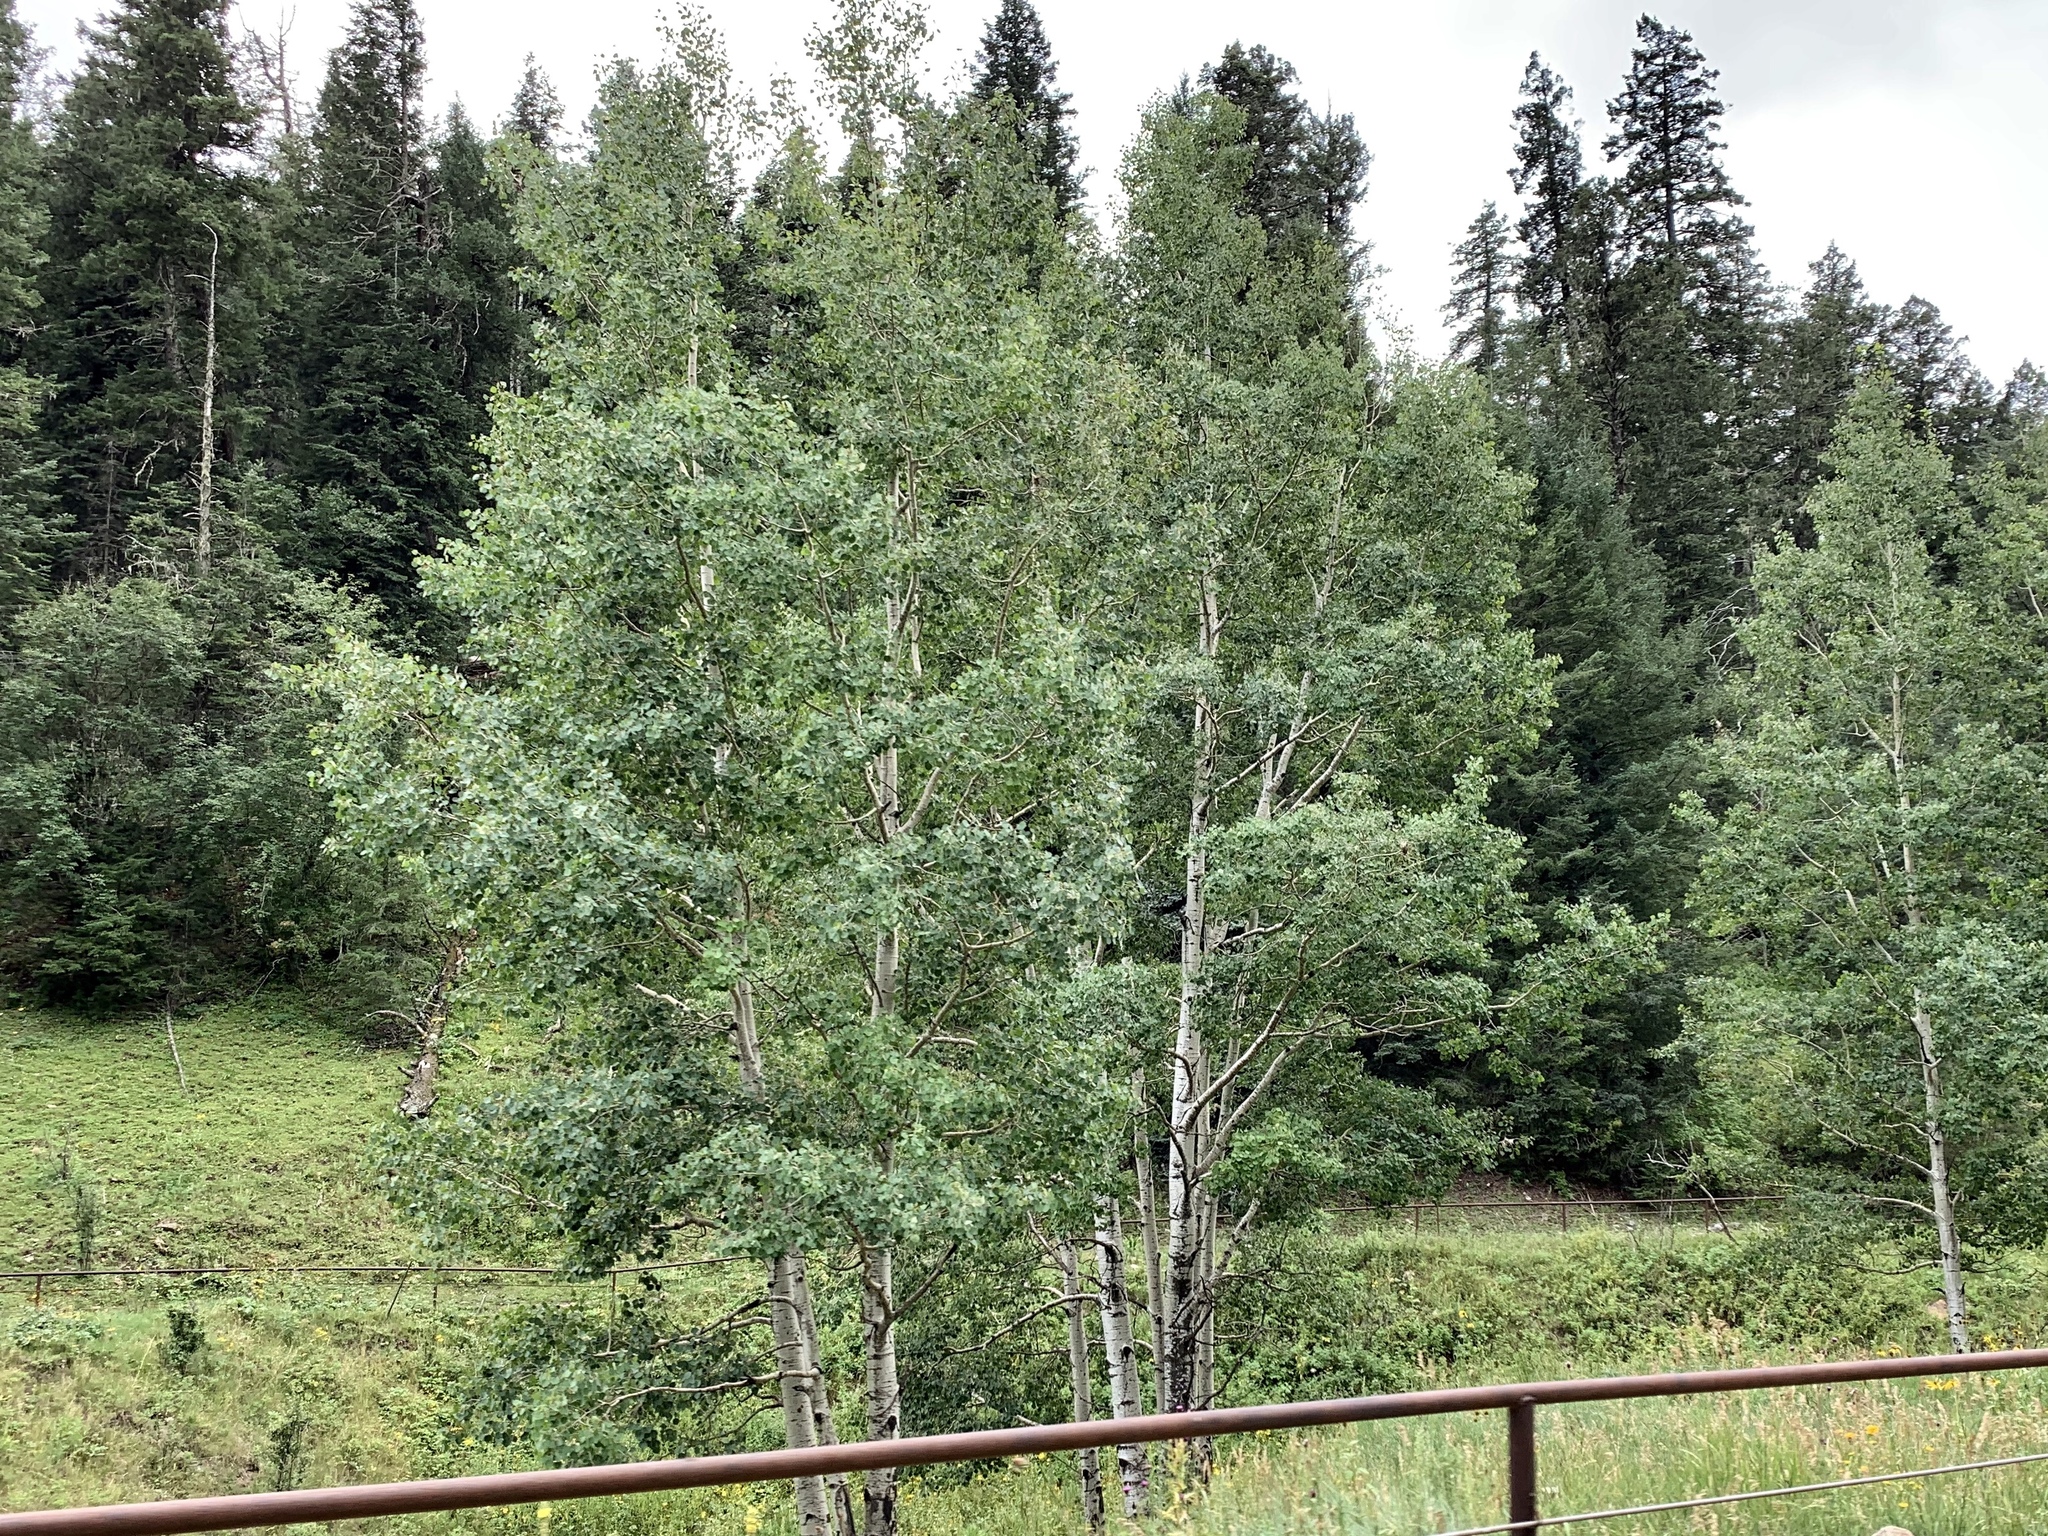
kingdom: Plantae
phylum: Tracheophyta
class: Magnoliopsida
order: Malpighiales
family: Salicaceae
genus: Populus
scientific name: Populus tremuloides
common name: Quaking aspen
